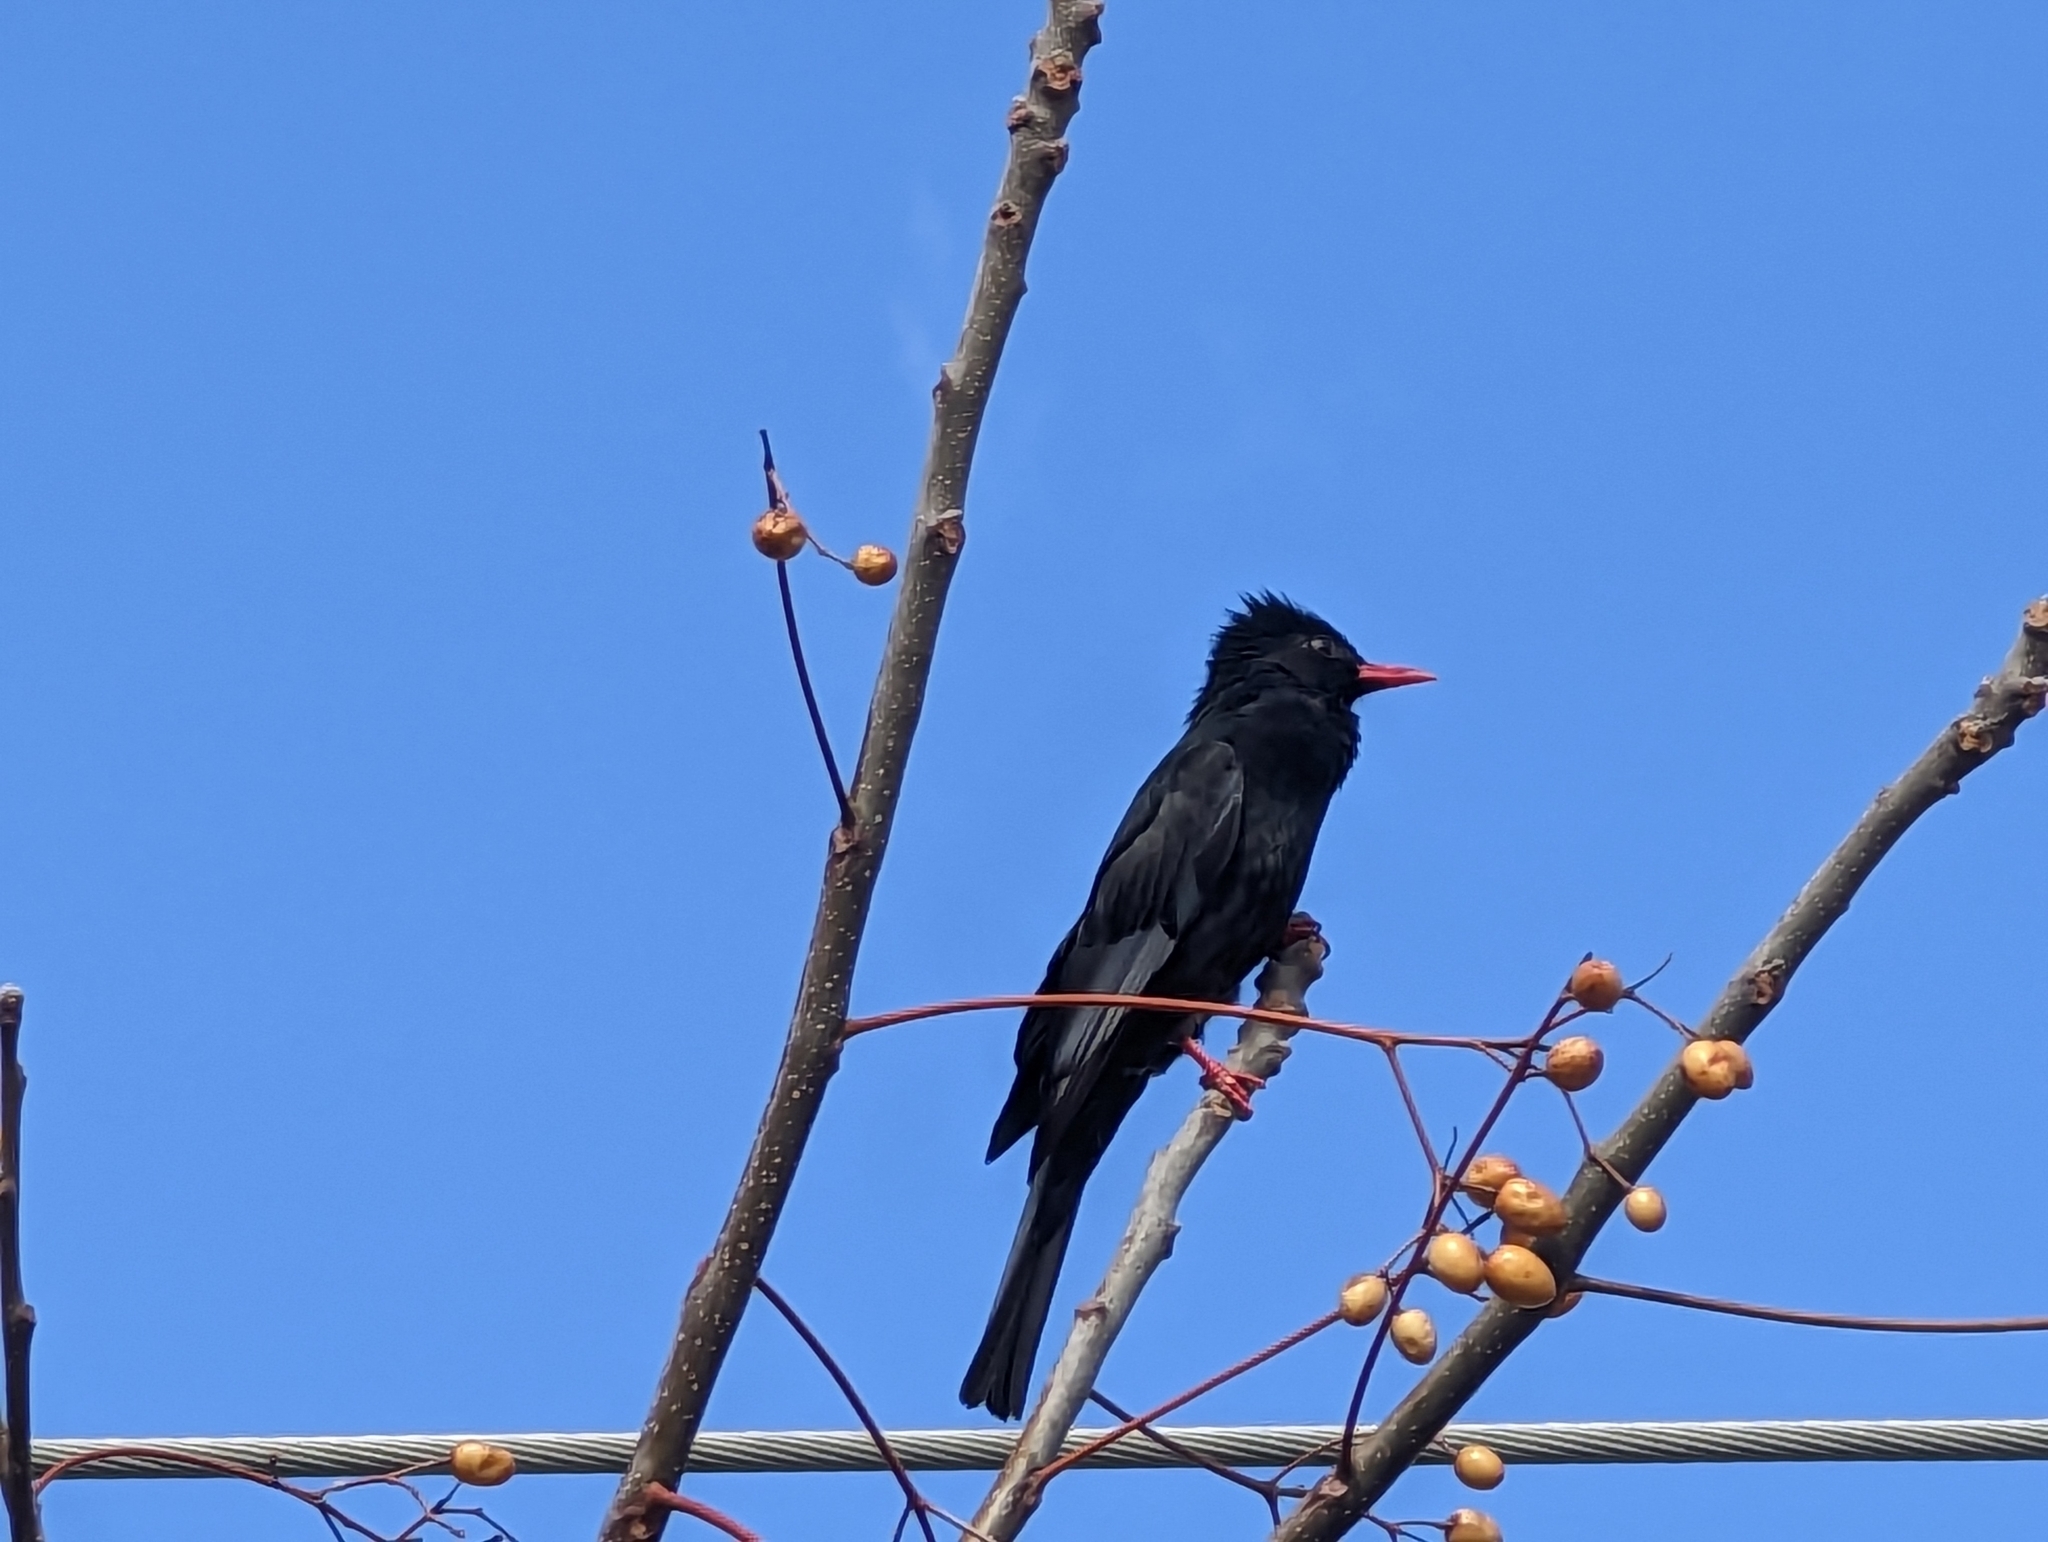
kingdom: Animalia
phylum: Chordata
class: Aves
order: Passeriformes
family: Pycnonotidae
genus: Hypsipetes
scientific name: Hypsipetes leucocephalus
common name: Black bulbul
